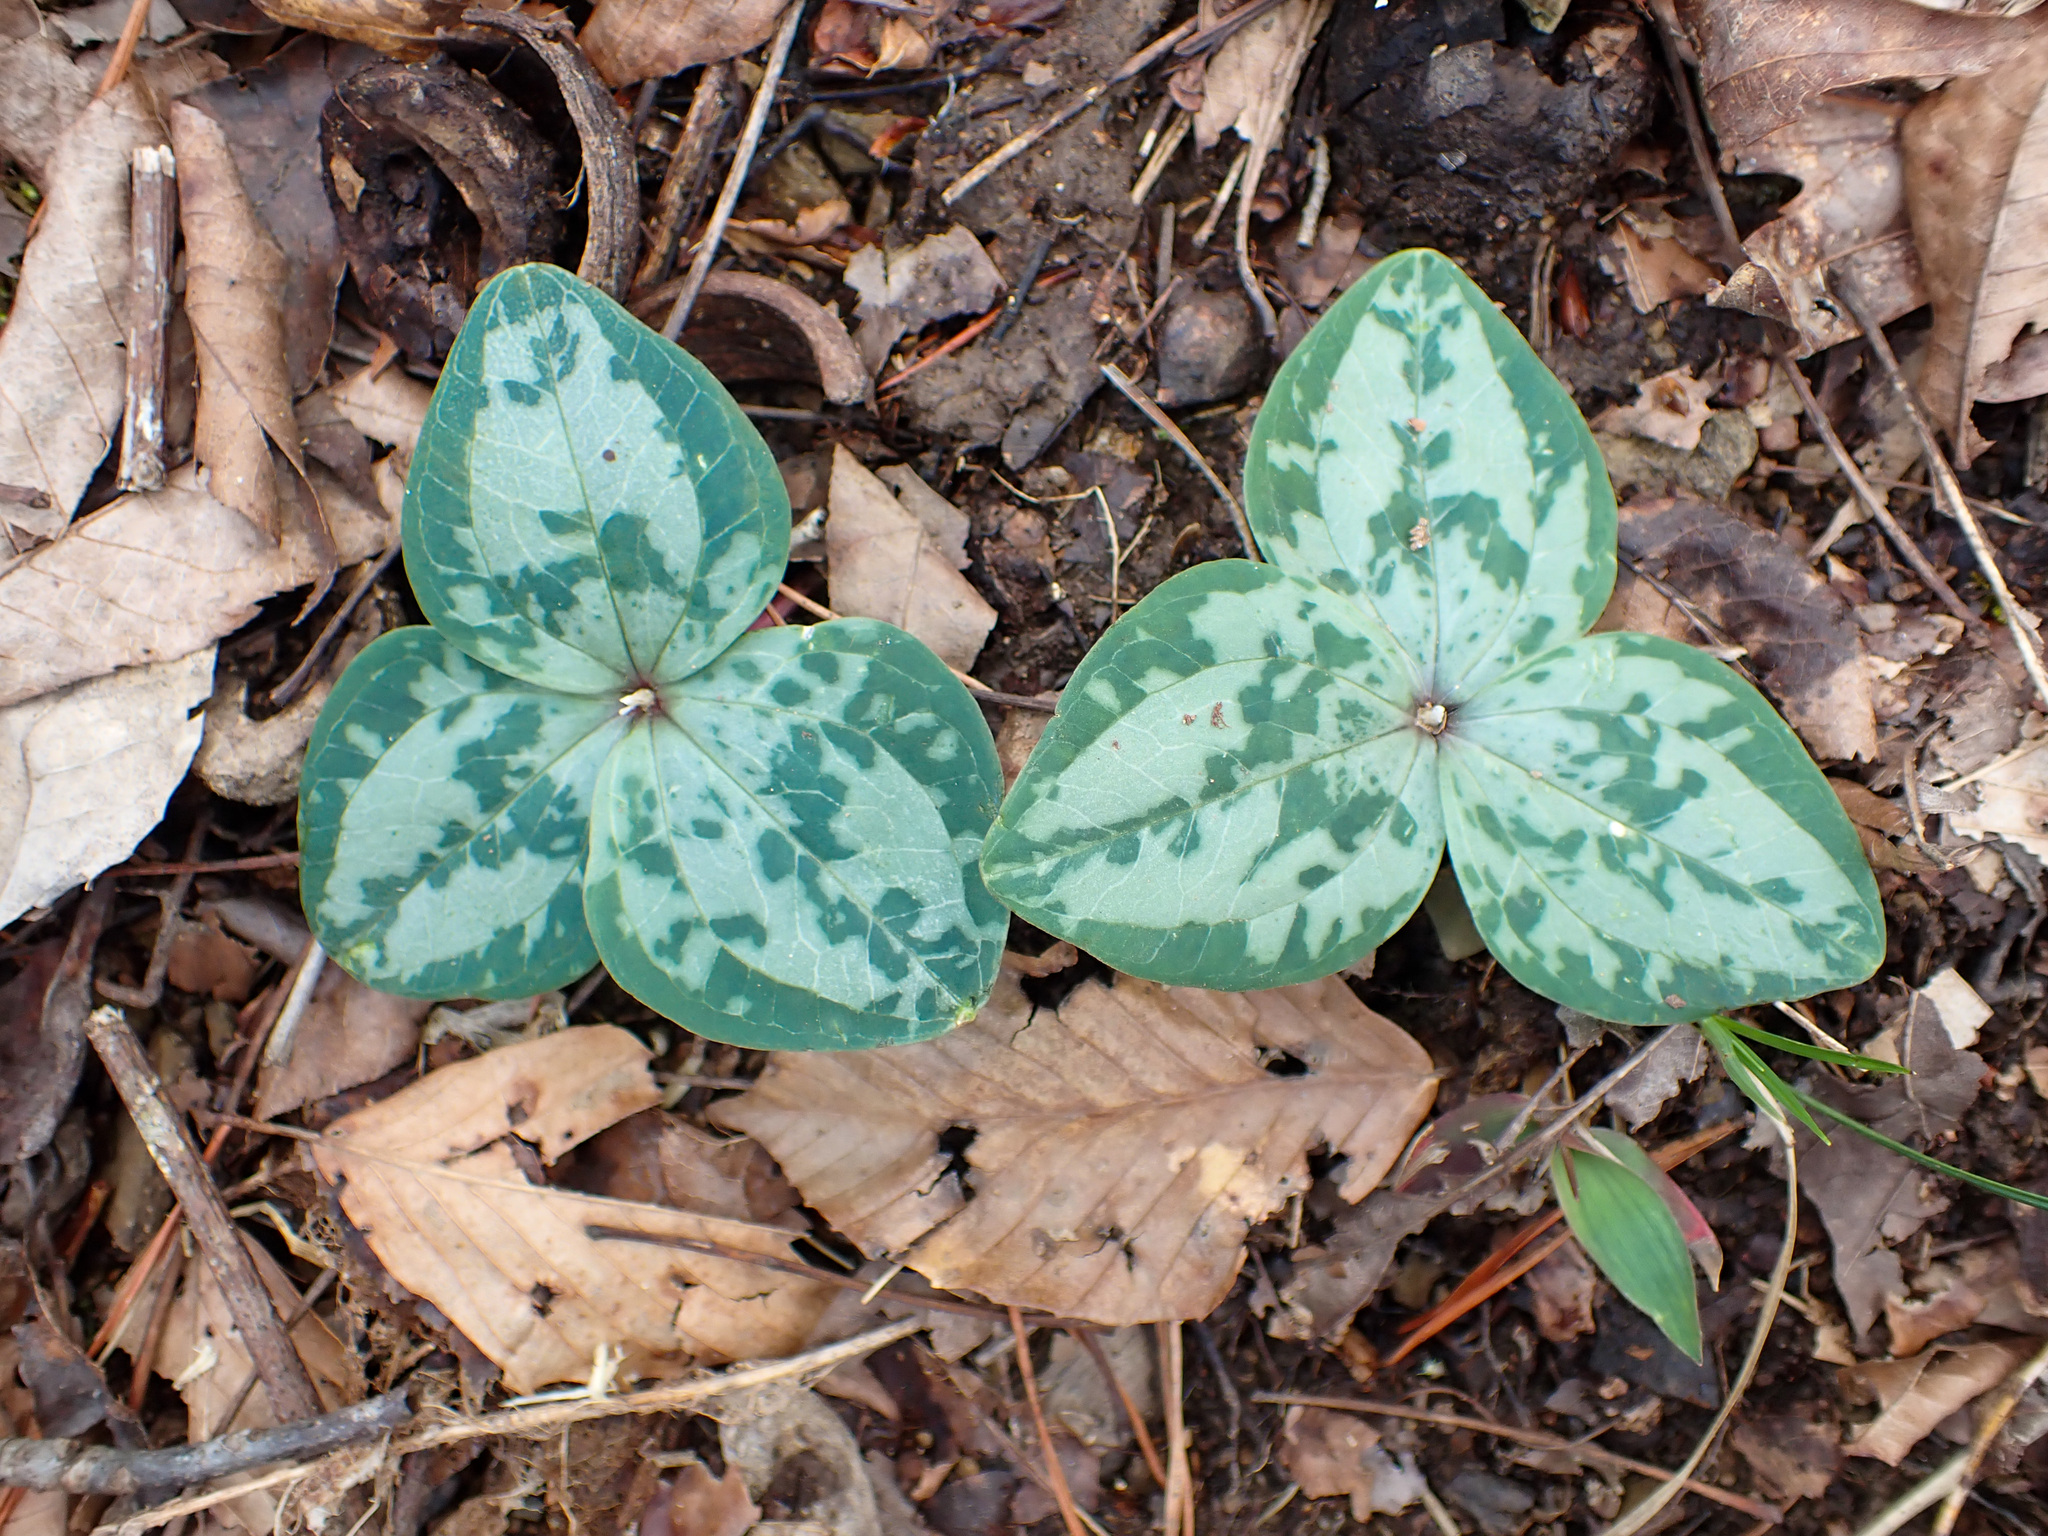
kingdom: Plantae
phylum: Tracheophyta
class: Liliopsida
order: Liliales
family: Melanthiaceae
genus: Trillium
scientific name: Trillium decumbens
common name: Decumbent trillium
